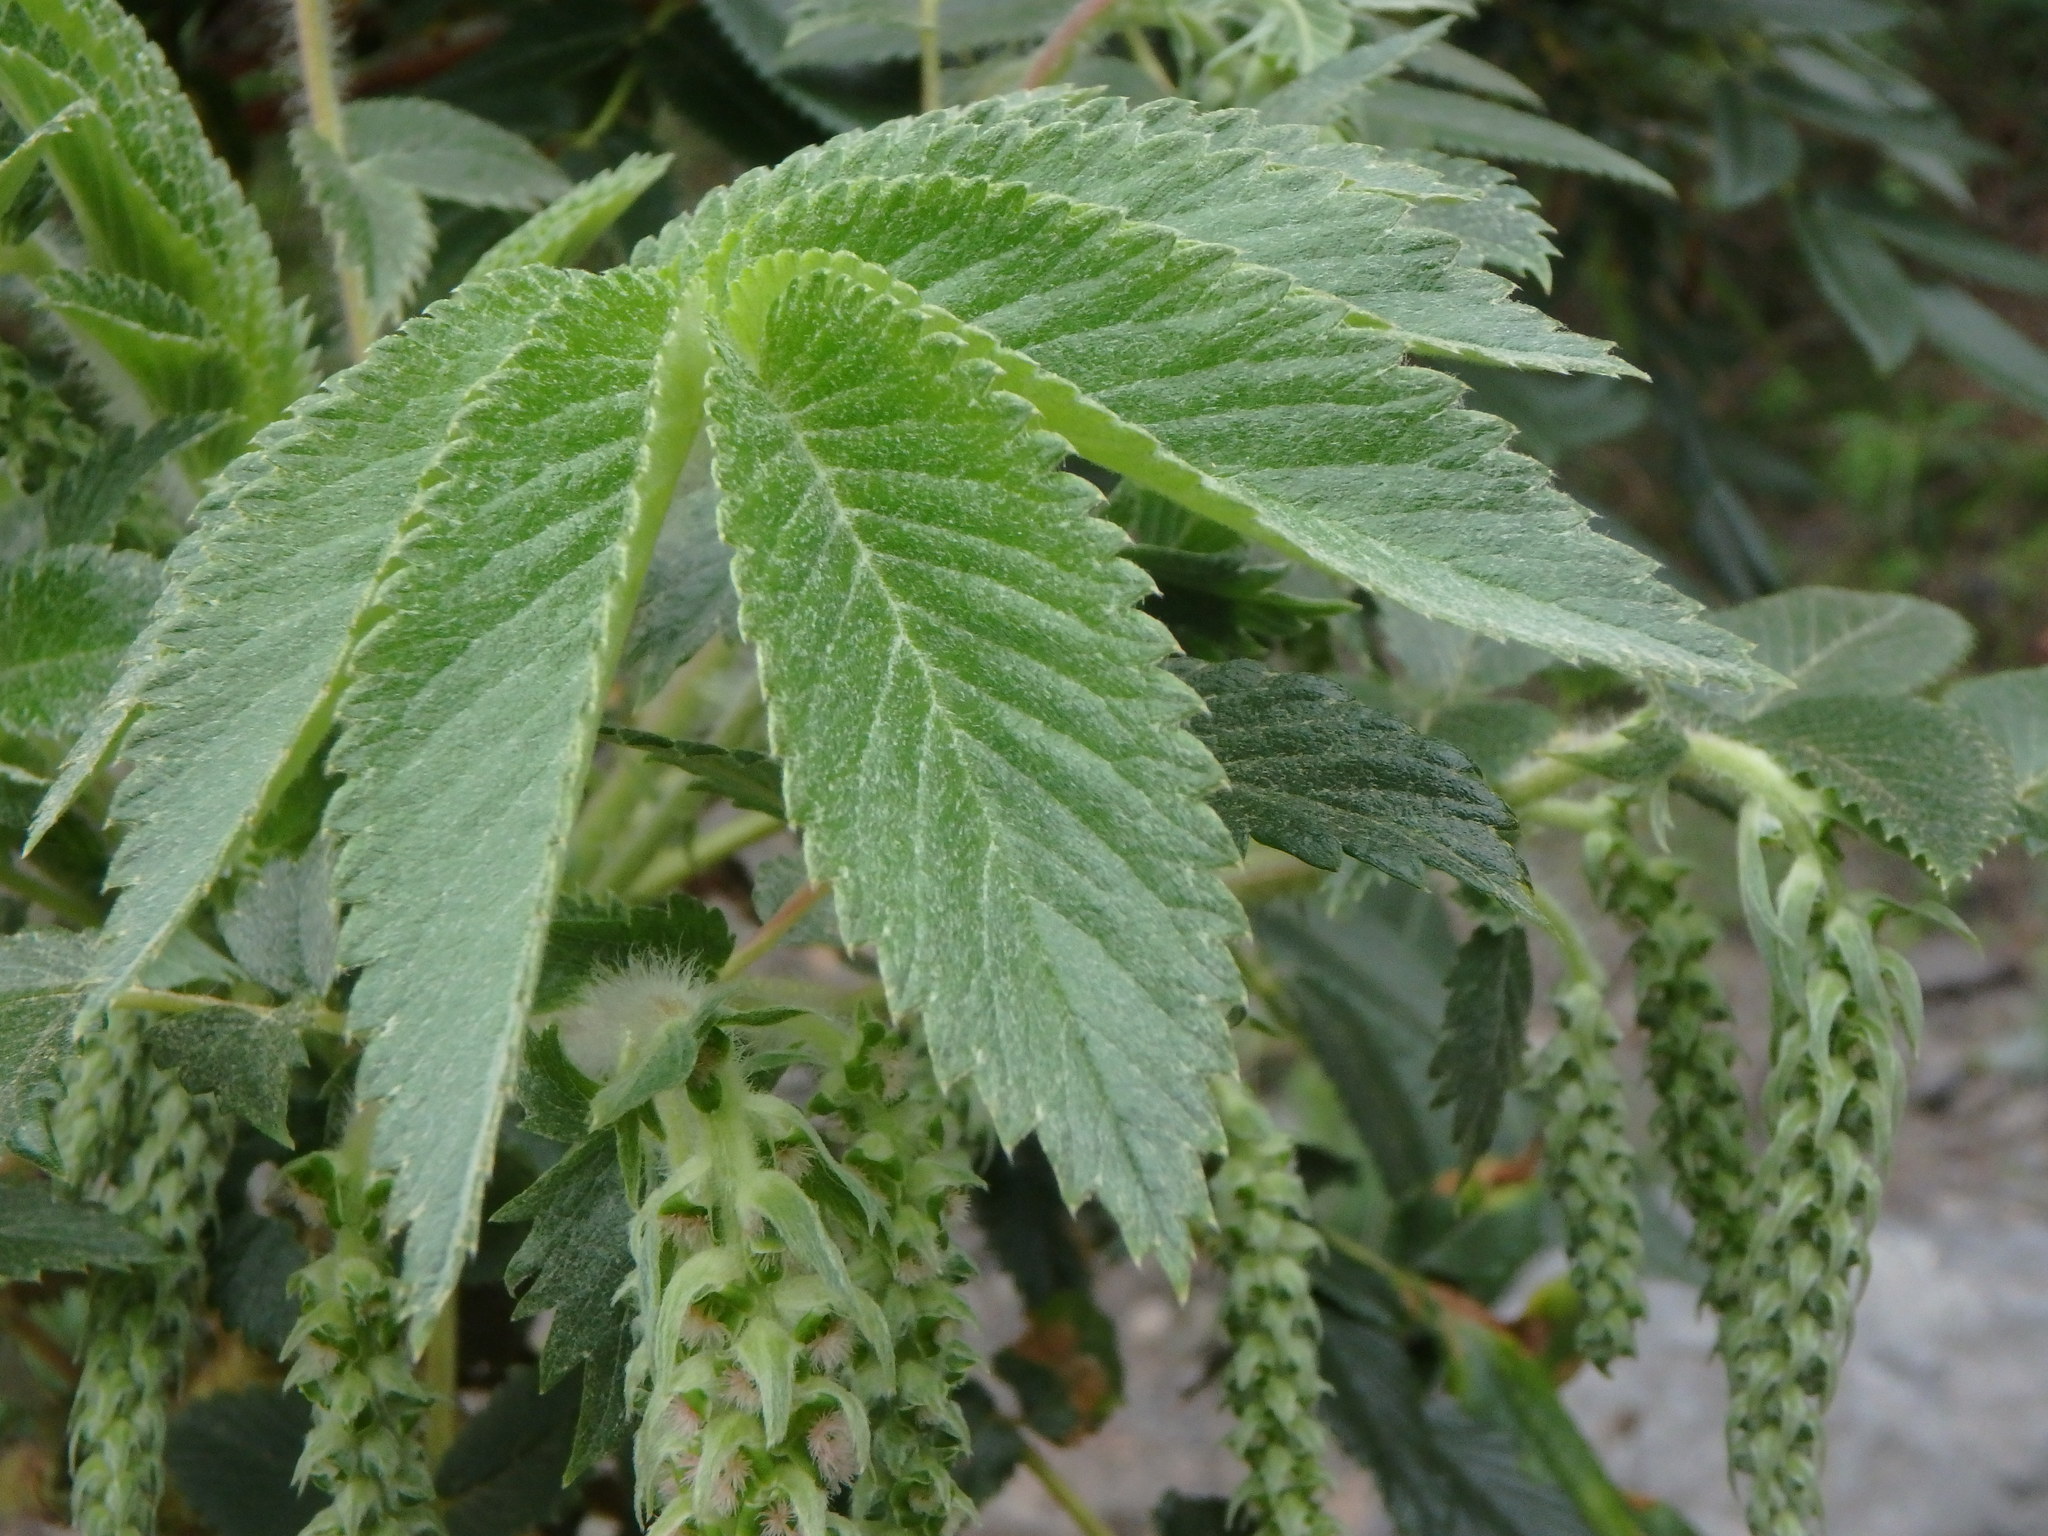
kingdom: Plantae
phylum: Tracheophyta
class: Magnoliopsida
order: Rosales
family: Rosaceae
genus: Bencomia
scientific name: Bencomia caudata
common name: Bencomia
